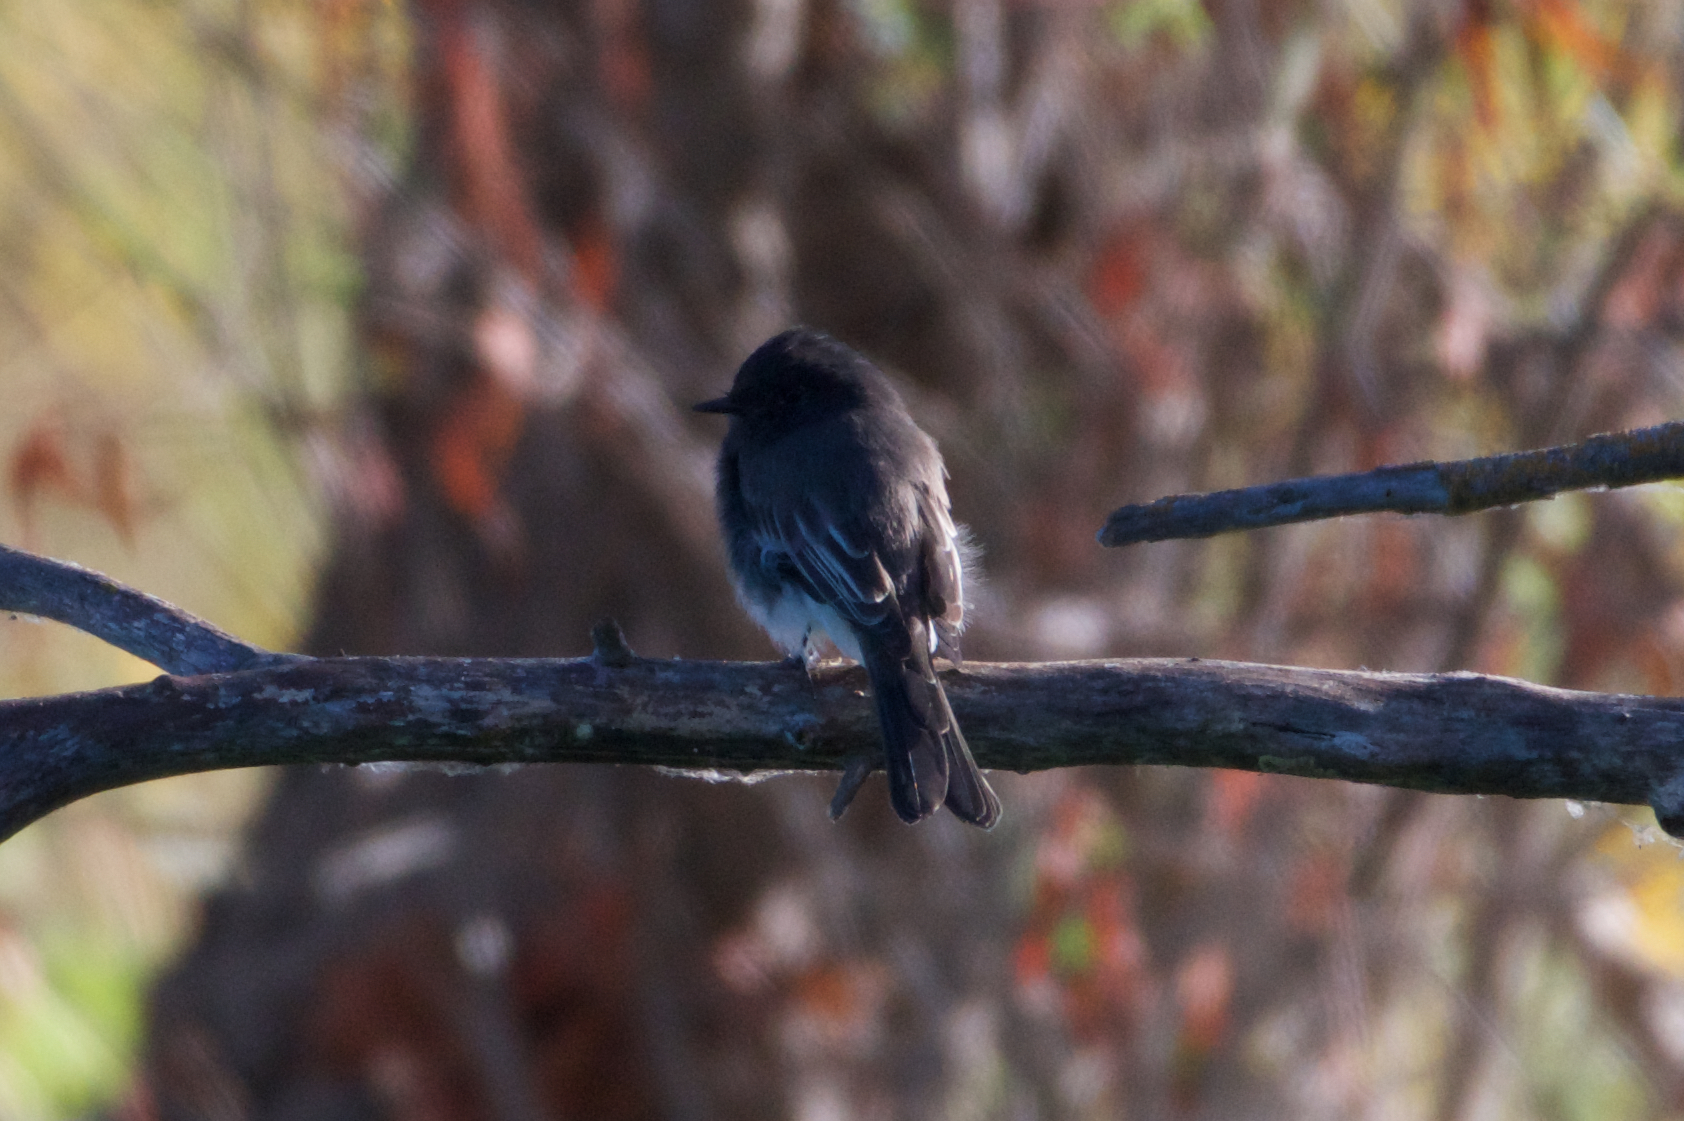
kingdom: Animalia
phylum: Chordata
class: Aves
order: Passeriformes
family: Tyrannidae
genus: Sayornis
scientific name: Sayornis nigricans
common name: Black phoebe
